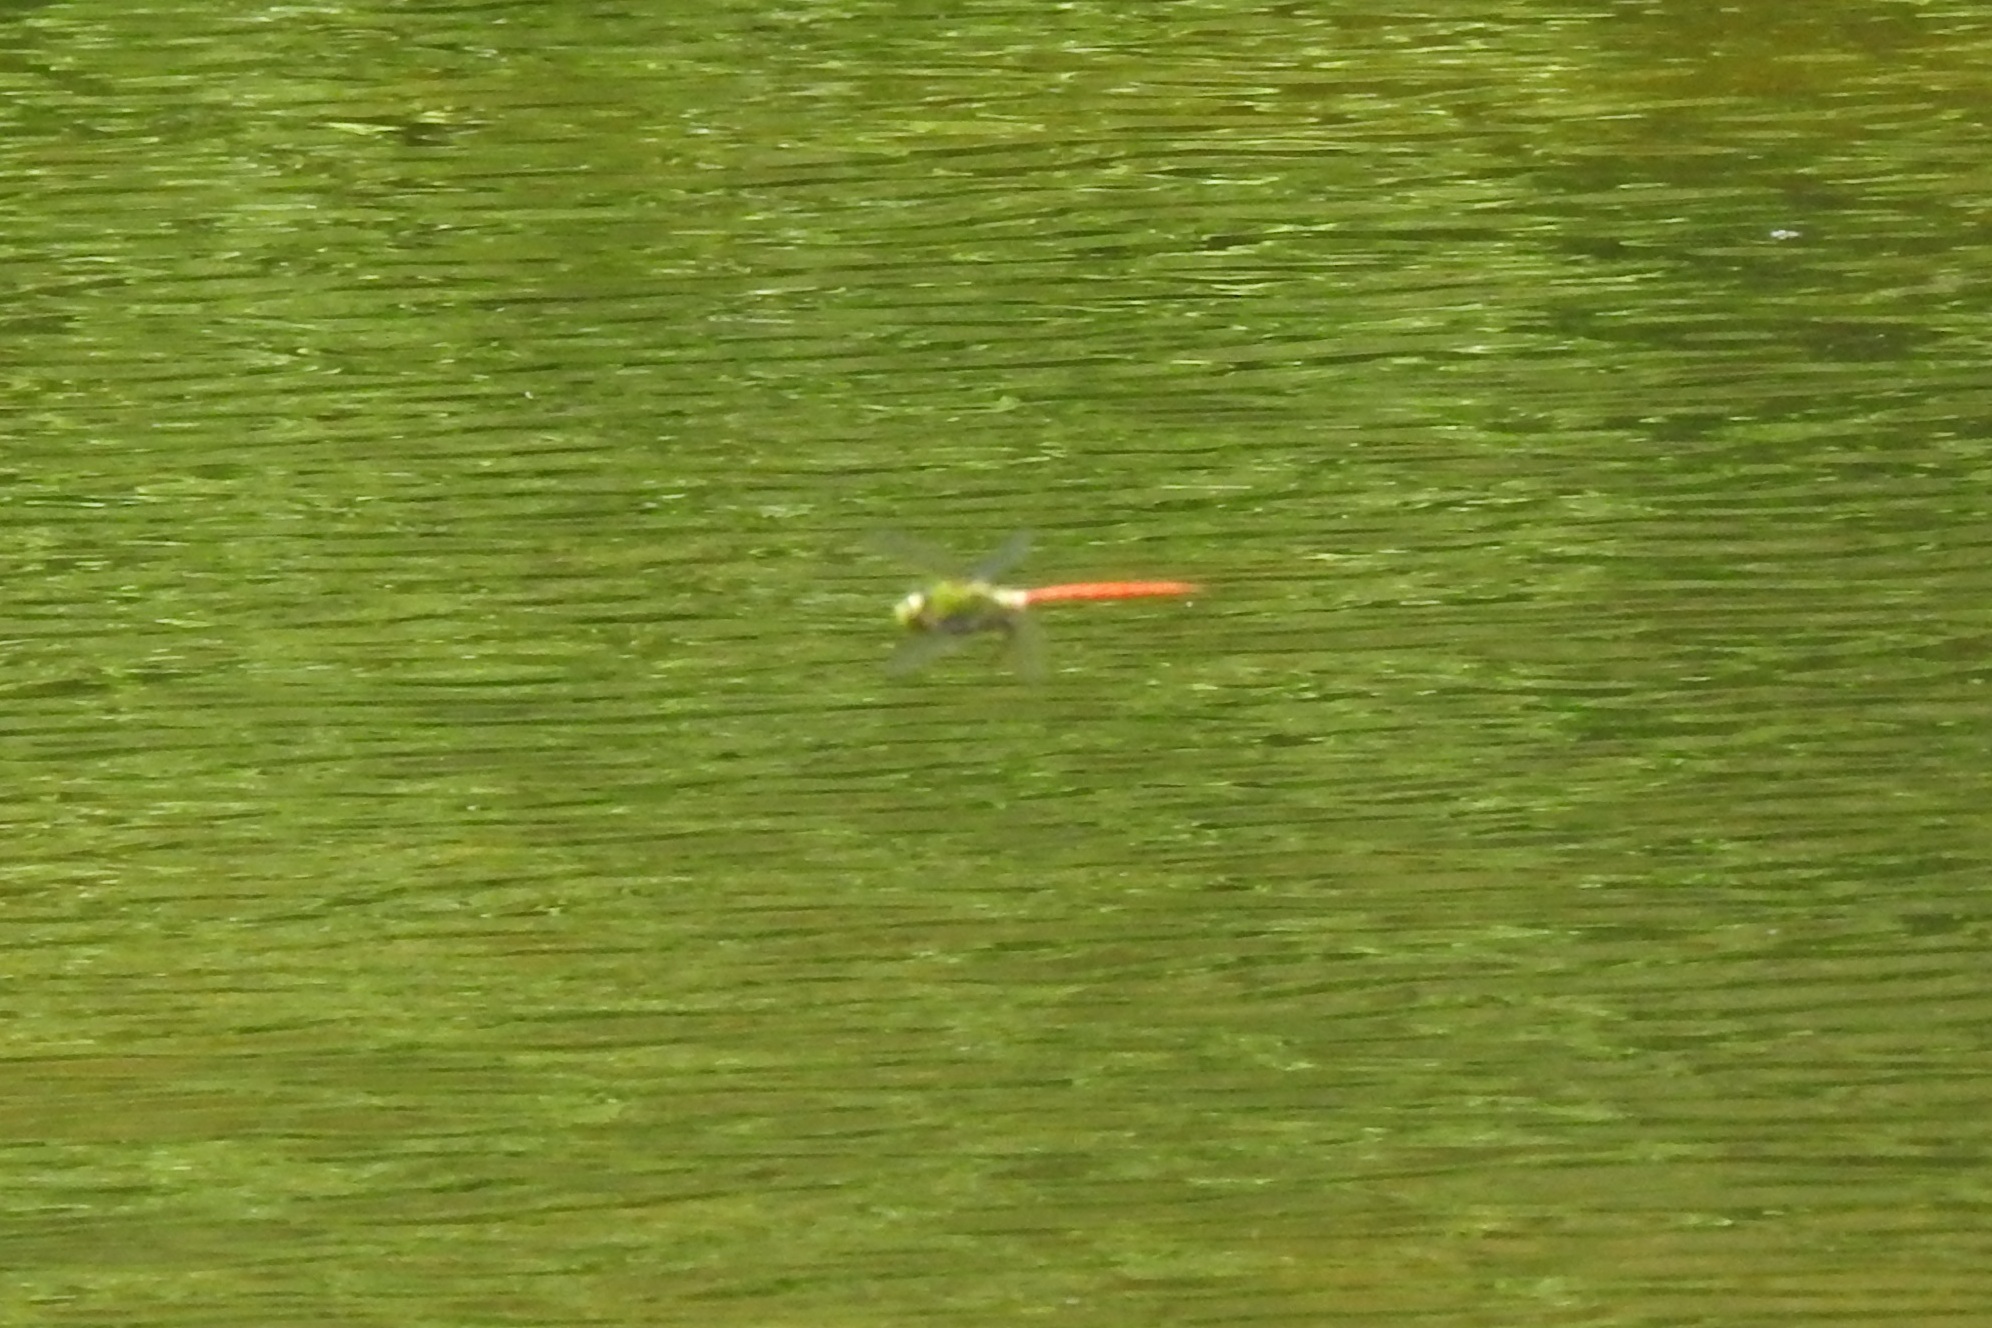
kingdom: Animalia
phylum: Arthropoda
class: Insecta
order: Odonata
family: Aeshnidae
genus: Anax
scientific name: Anax longipes
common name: Comet darner
